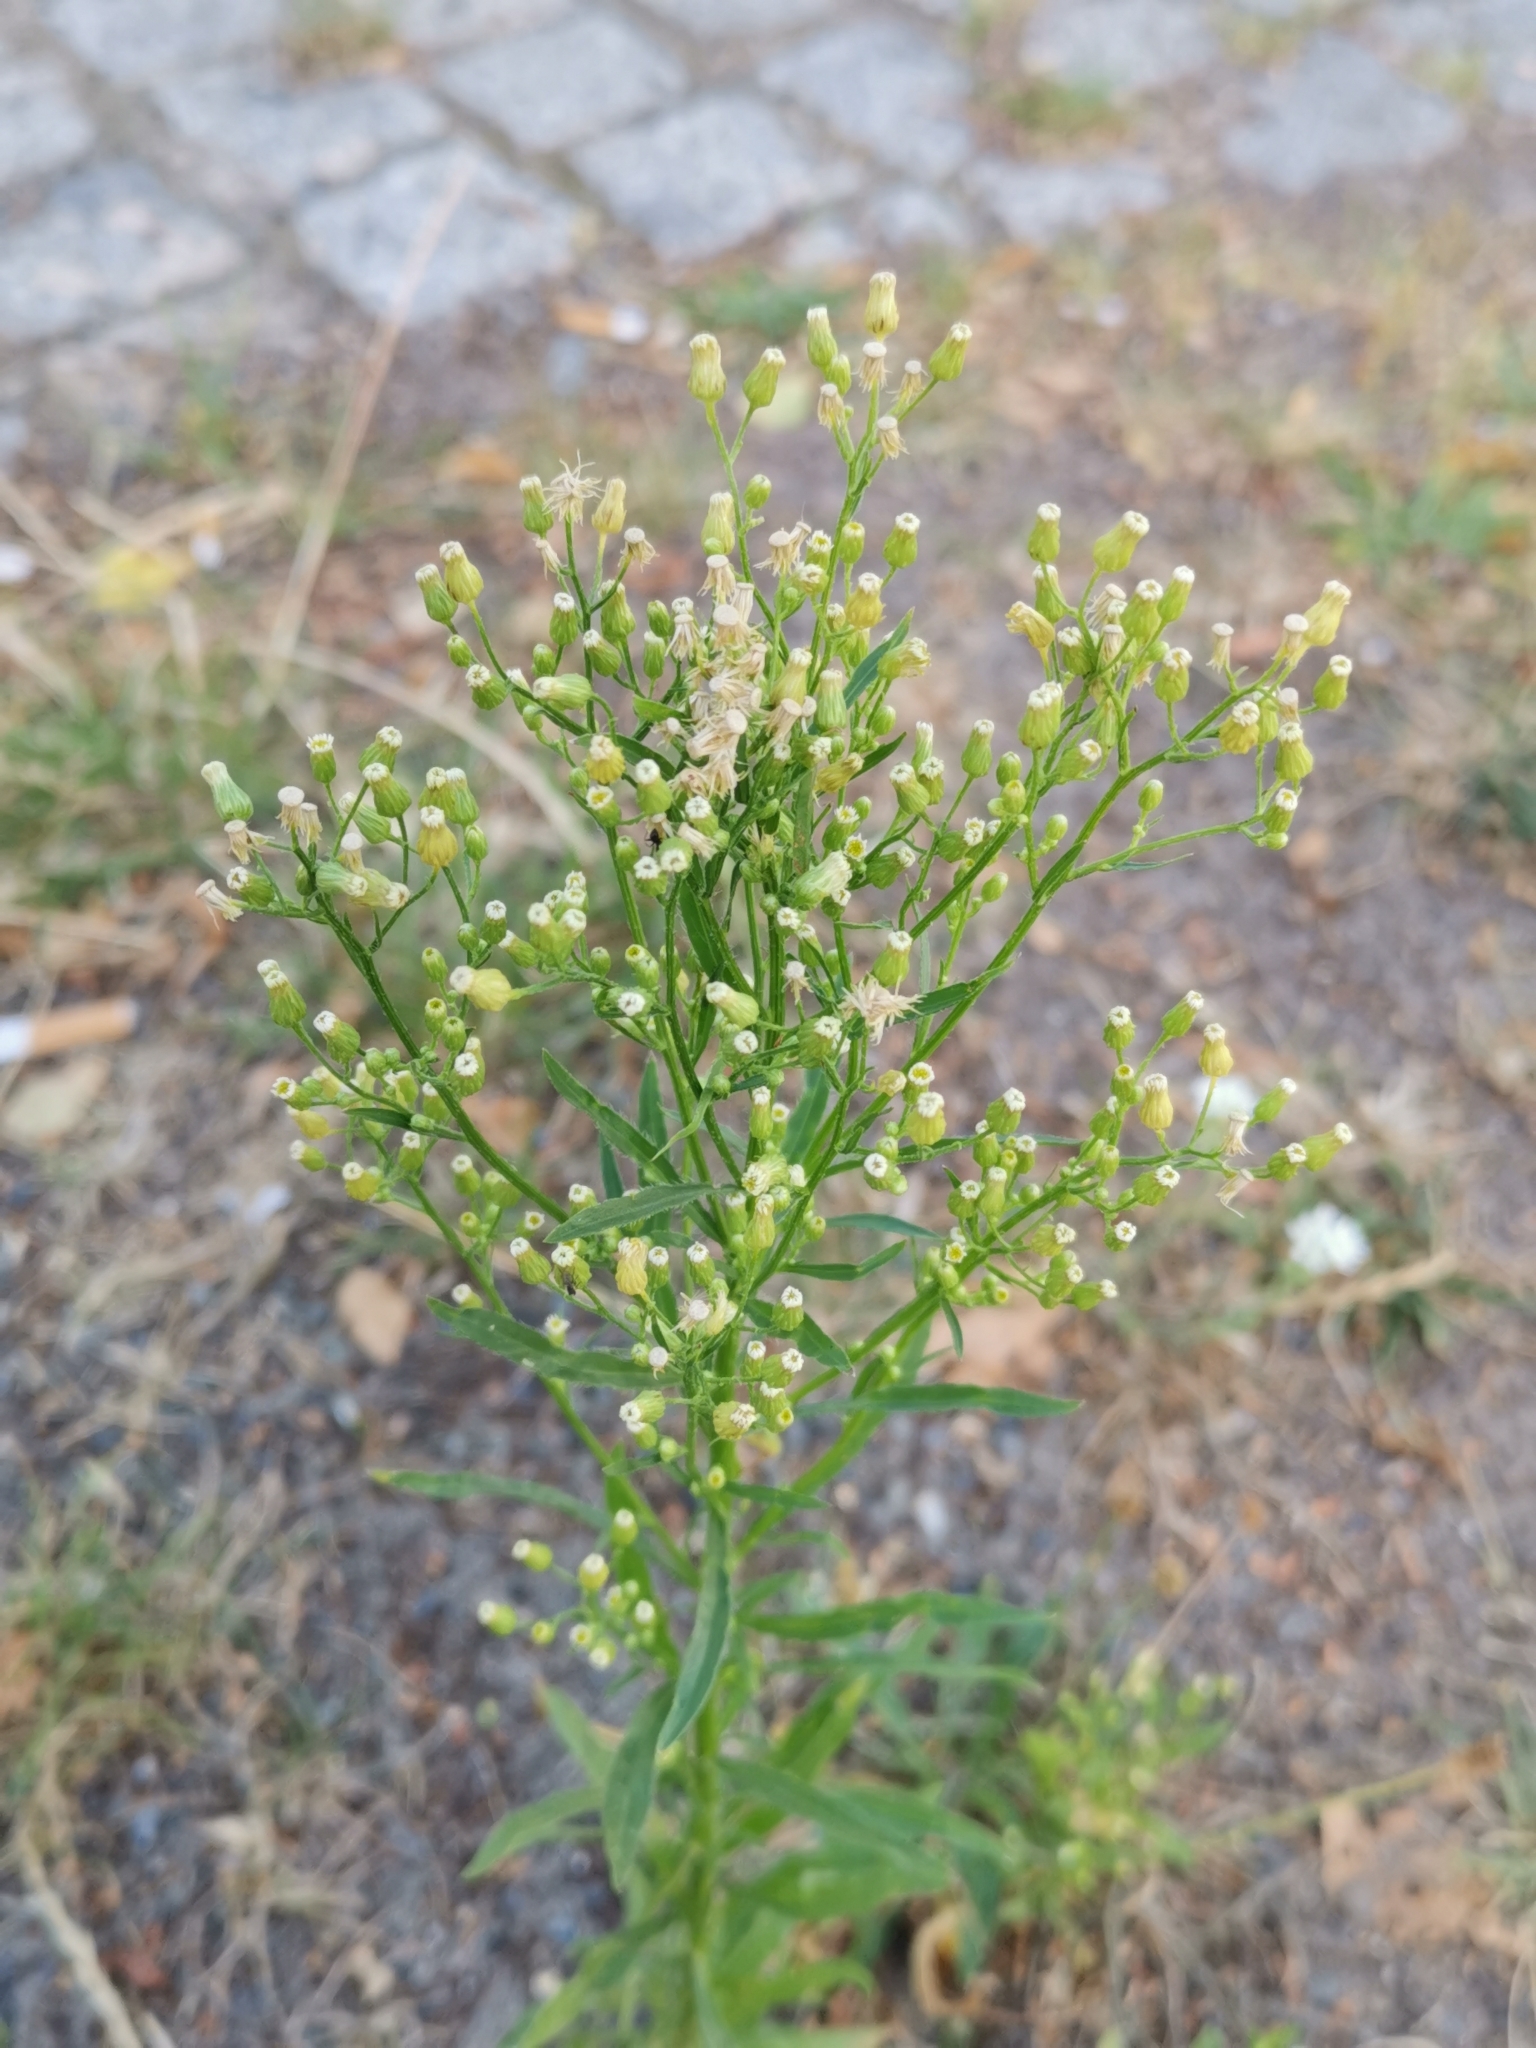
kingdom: Plantae
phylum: Tracheophyta
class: Magnoliopsida
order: Asterales
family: Asteraceae
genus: Erigeron
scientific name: Erigeron canadensis
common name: Canadian fleabane
